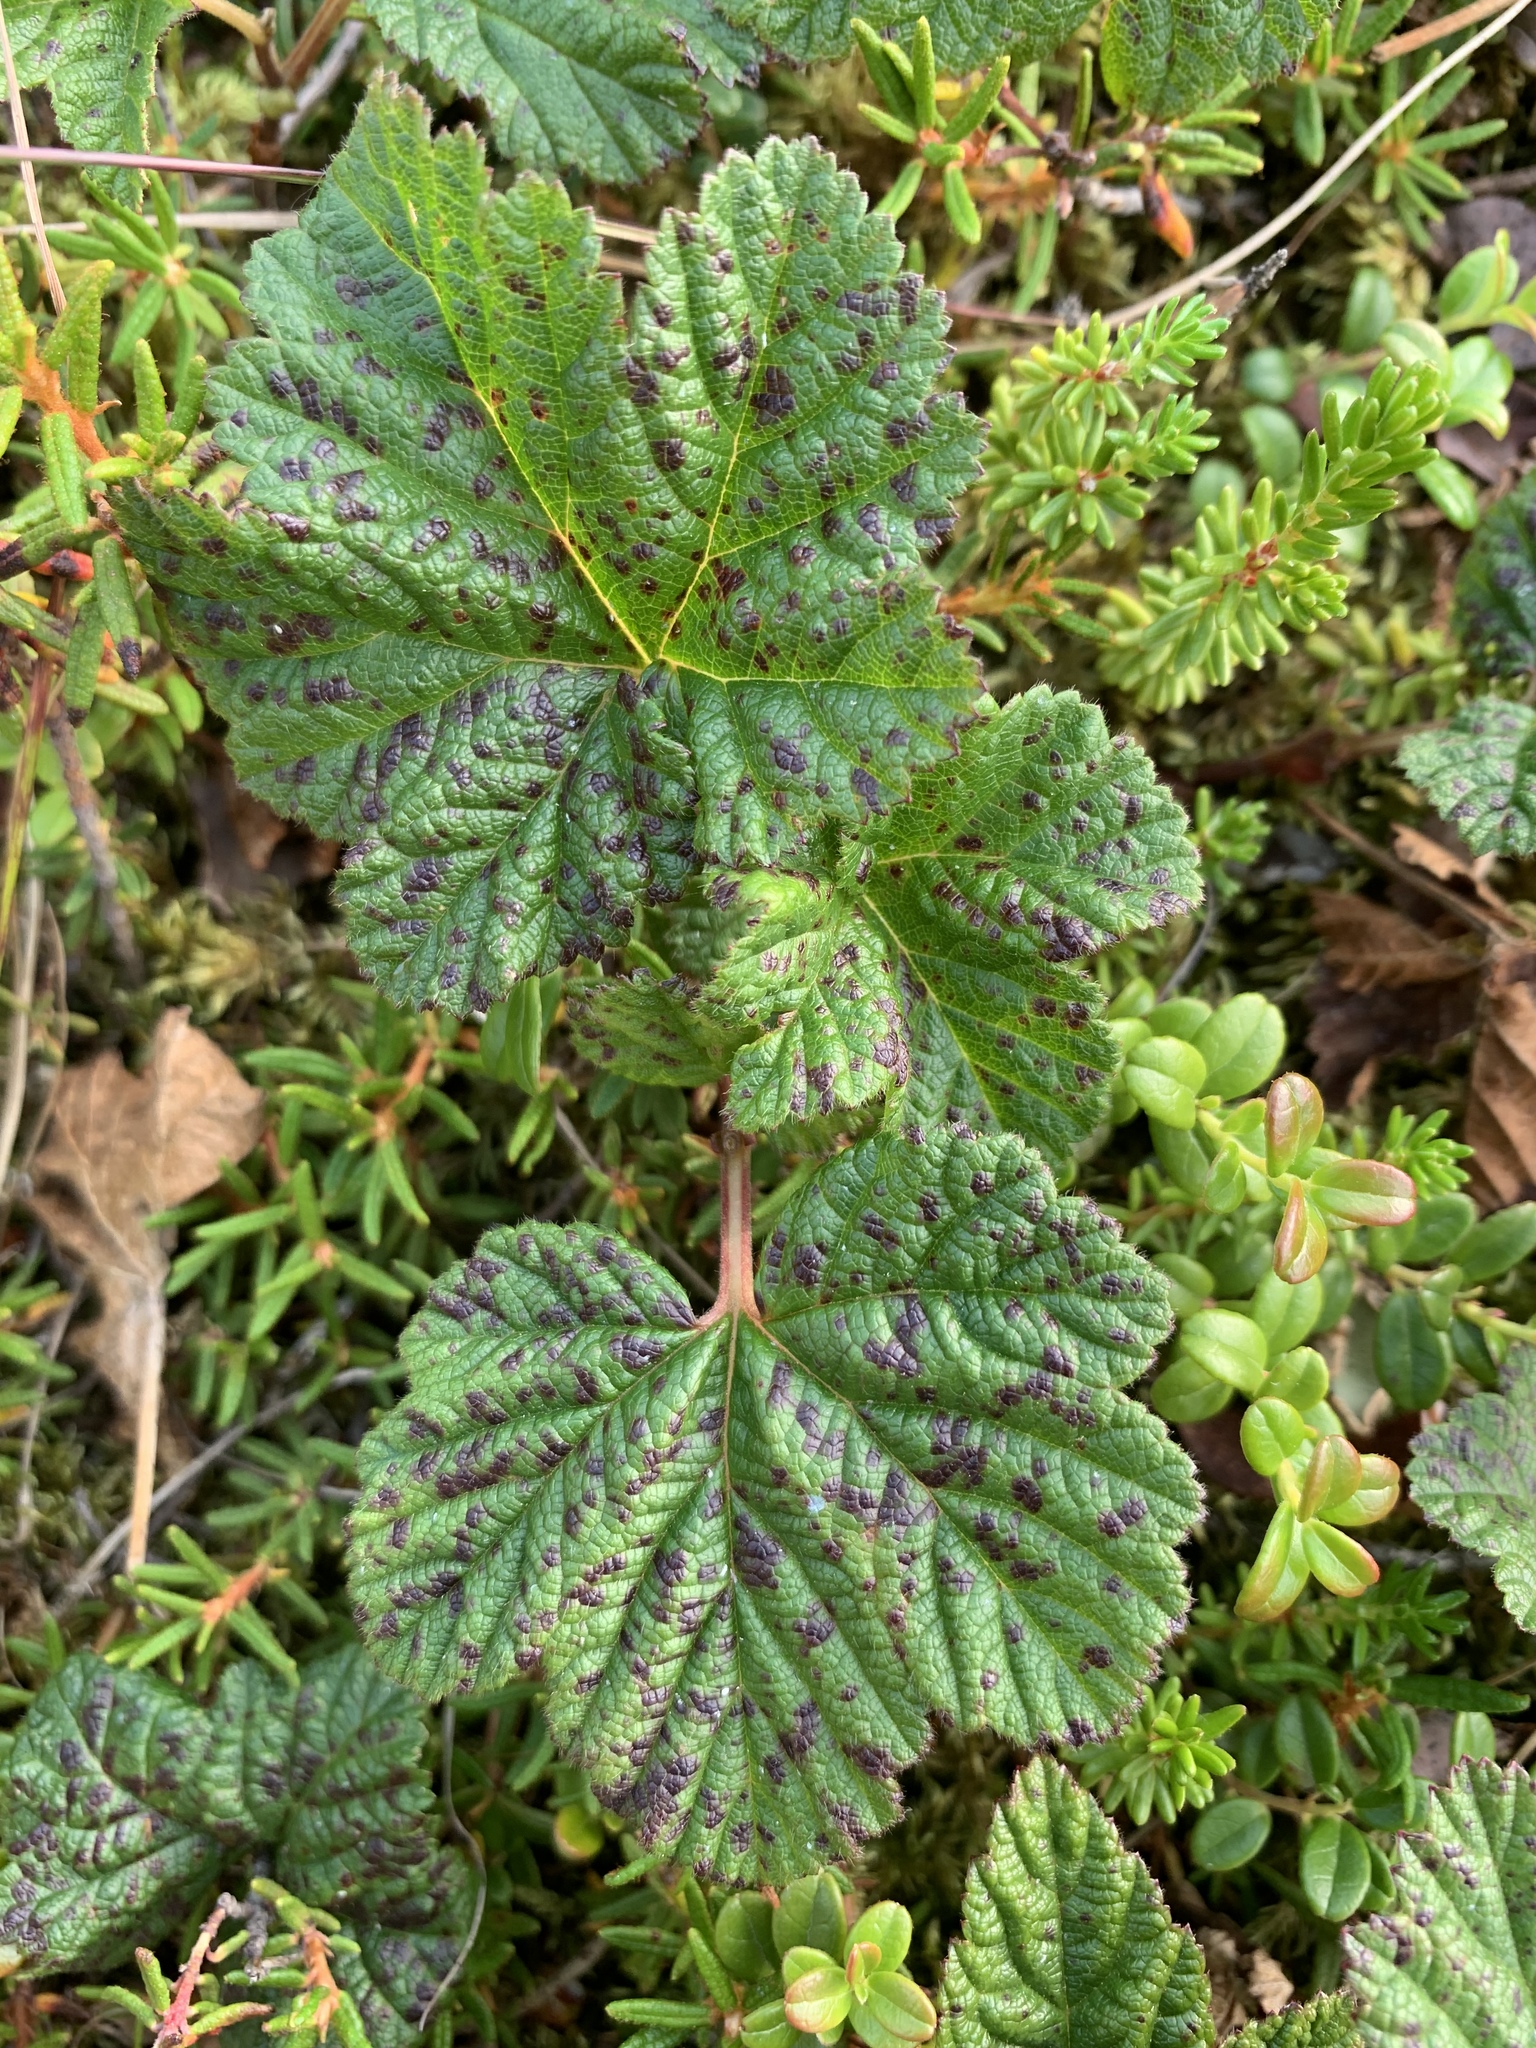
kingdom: Plantae
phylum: Tracheophyta
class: Magnoliopsida
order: Rosales
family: Rosaceae
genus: Rubus
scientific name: Rubus chamaemorus
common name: Cloudberry
